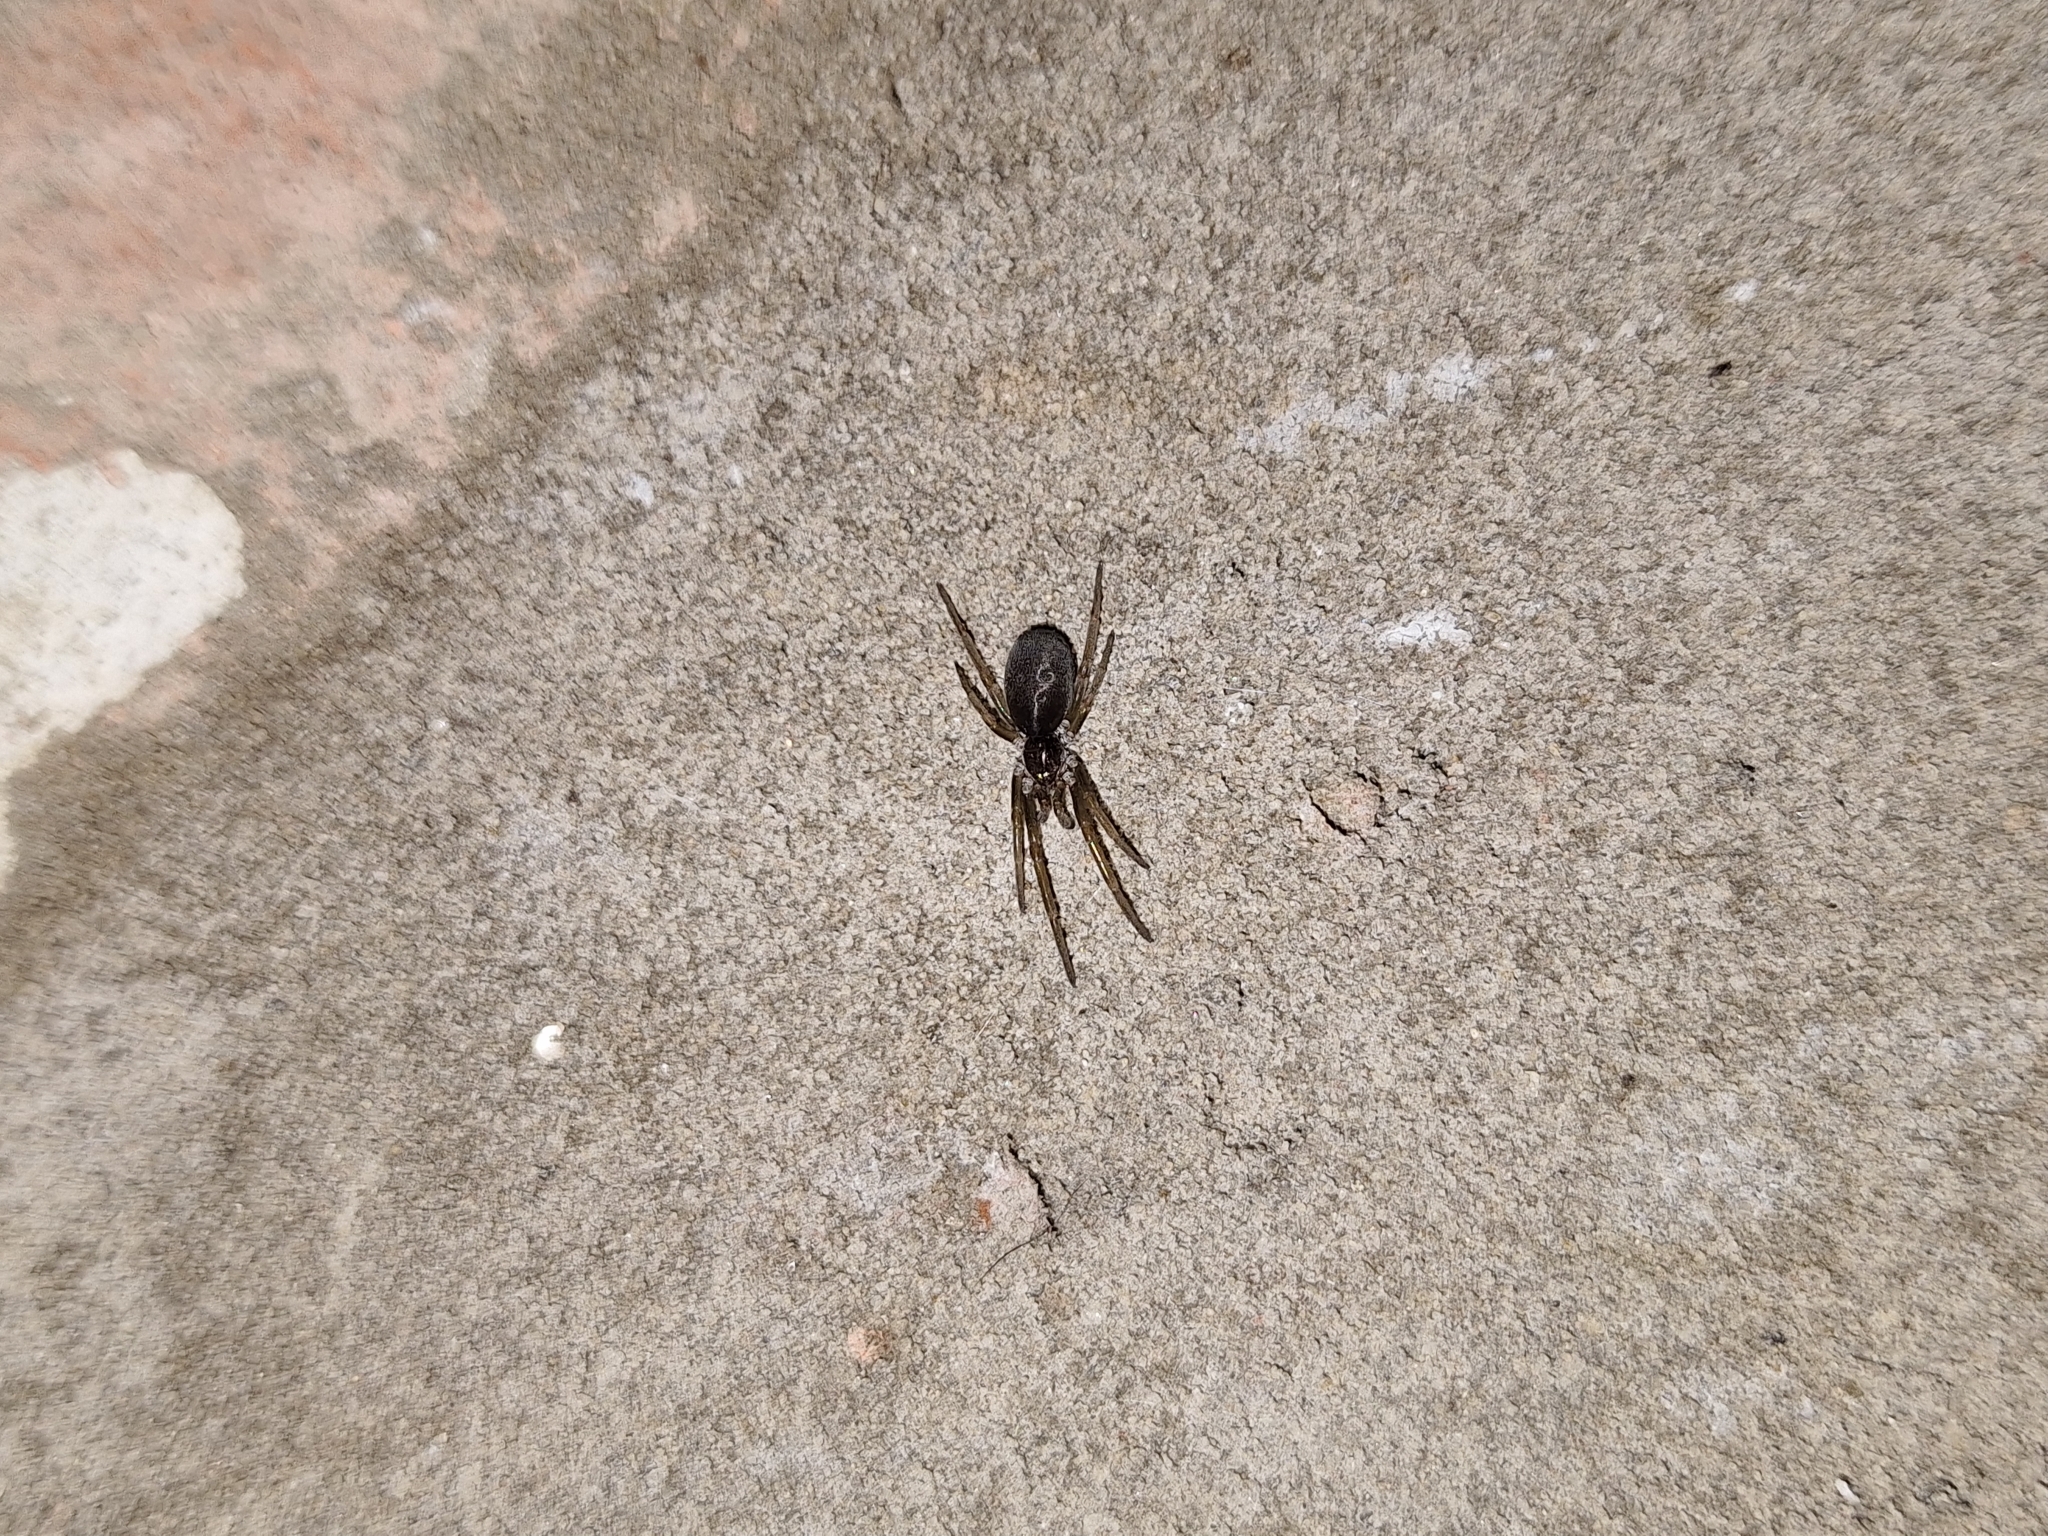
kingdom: Animalia
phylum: Arthropoda
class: Arachnida
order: Araneae
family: Filistatidae
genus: Kukulcania
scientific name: Kukulcania hibernalis
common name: Crevice weaver
